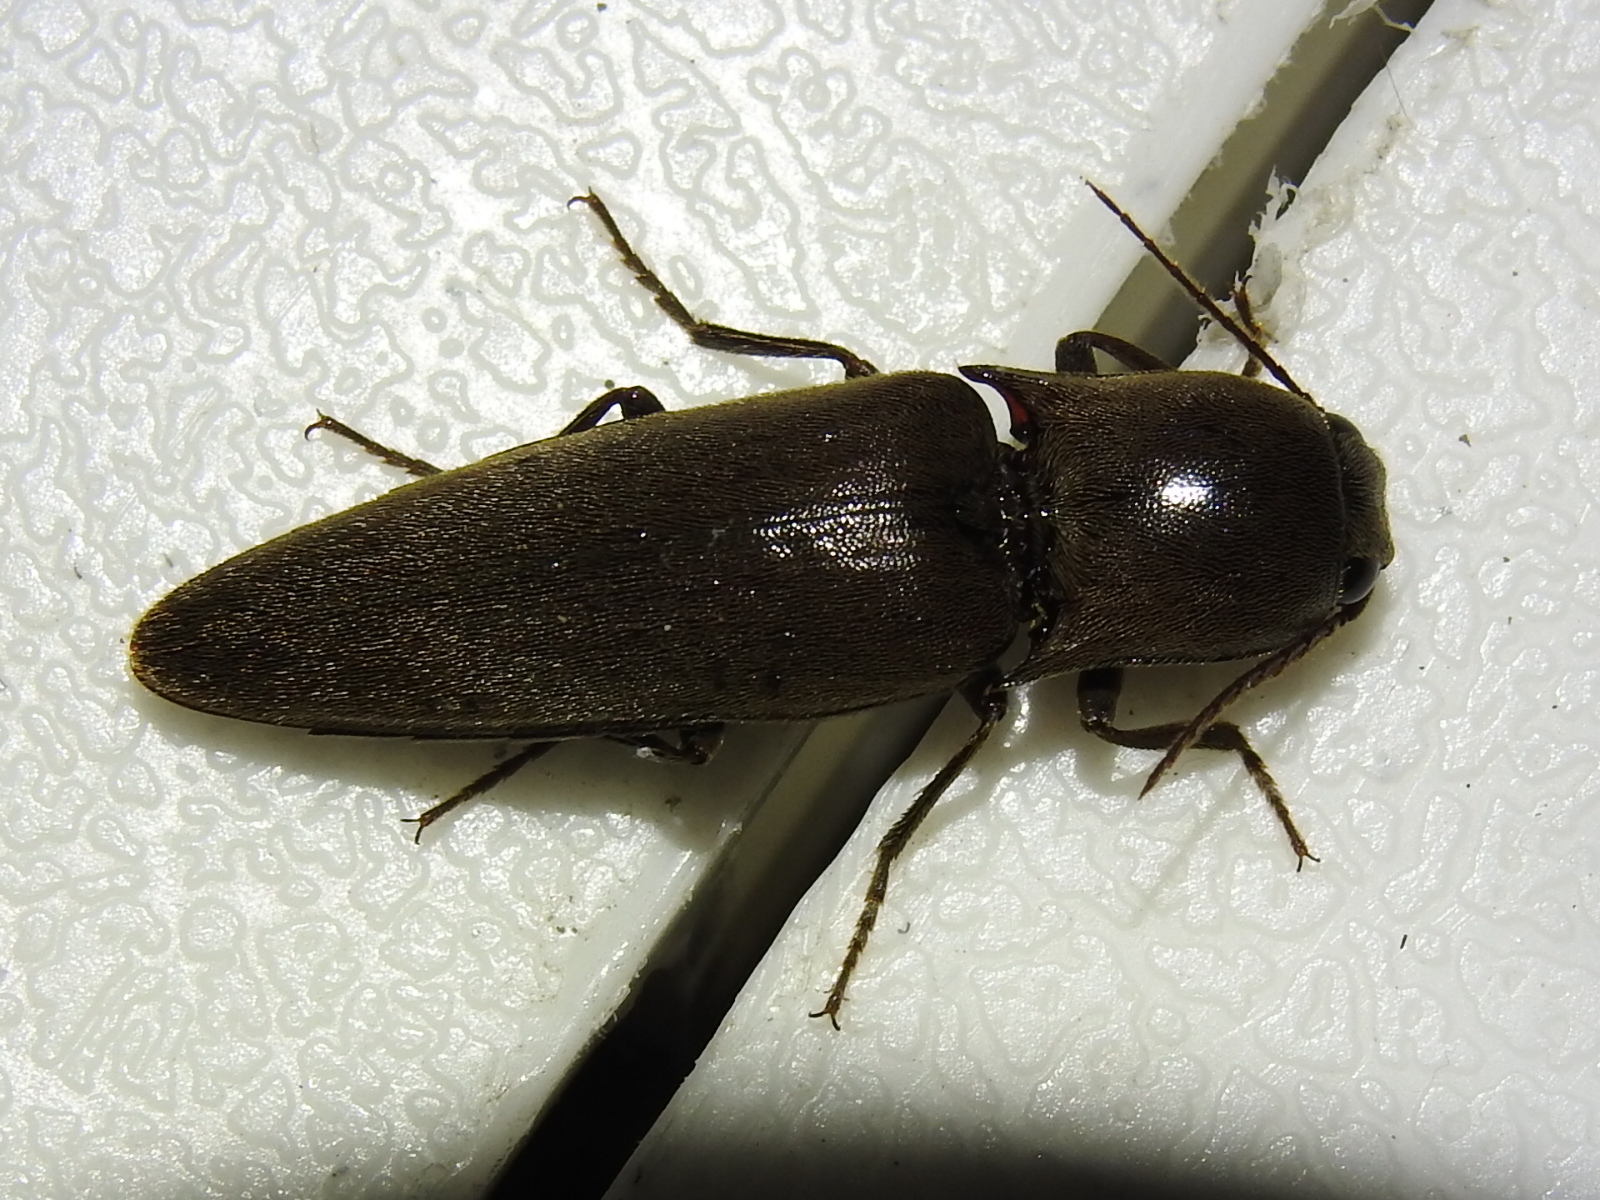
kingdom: Animalia
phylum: Arthropoda
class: Insecta
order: Coleoptera
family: Elateridae
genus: Orthostethus
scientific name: Orthostethus infuscatus
